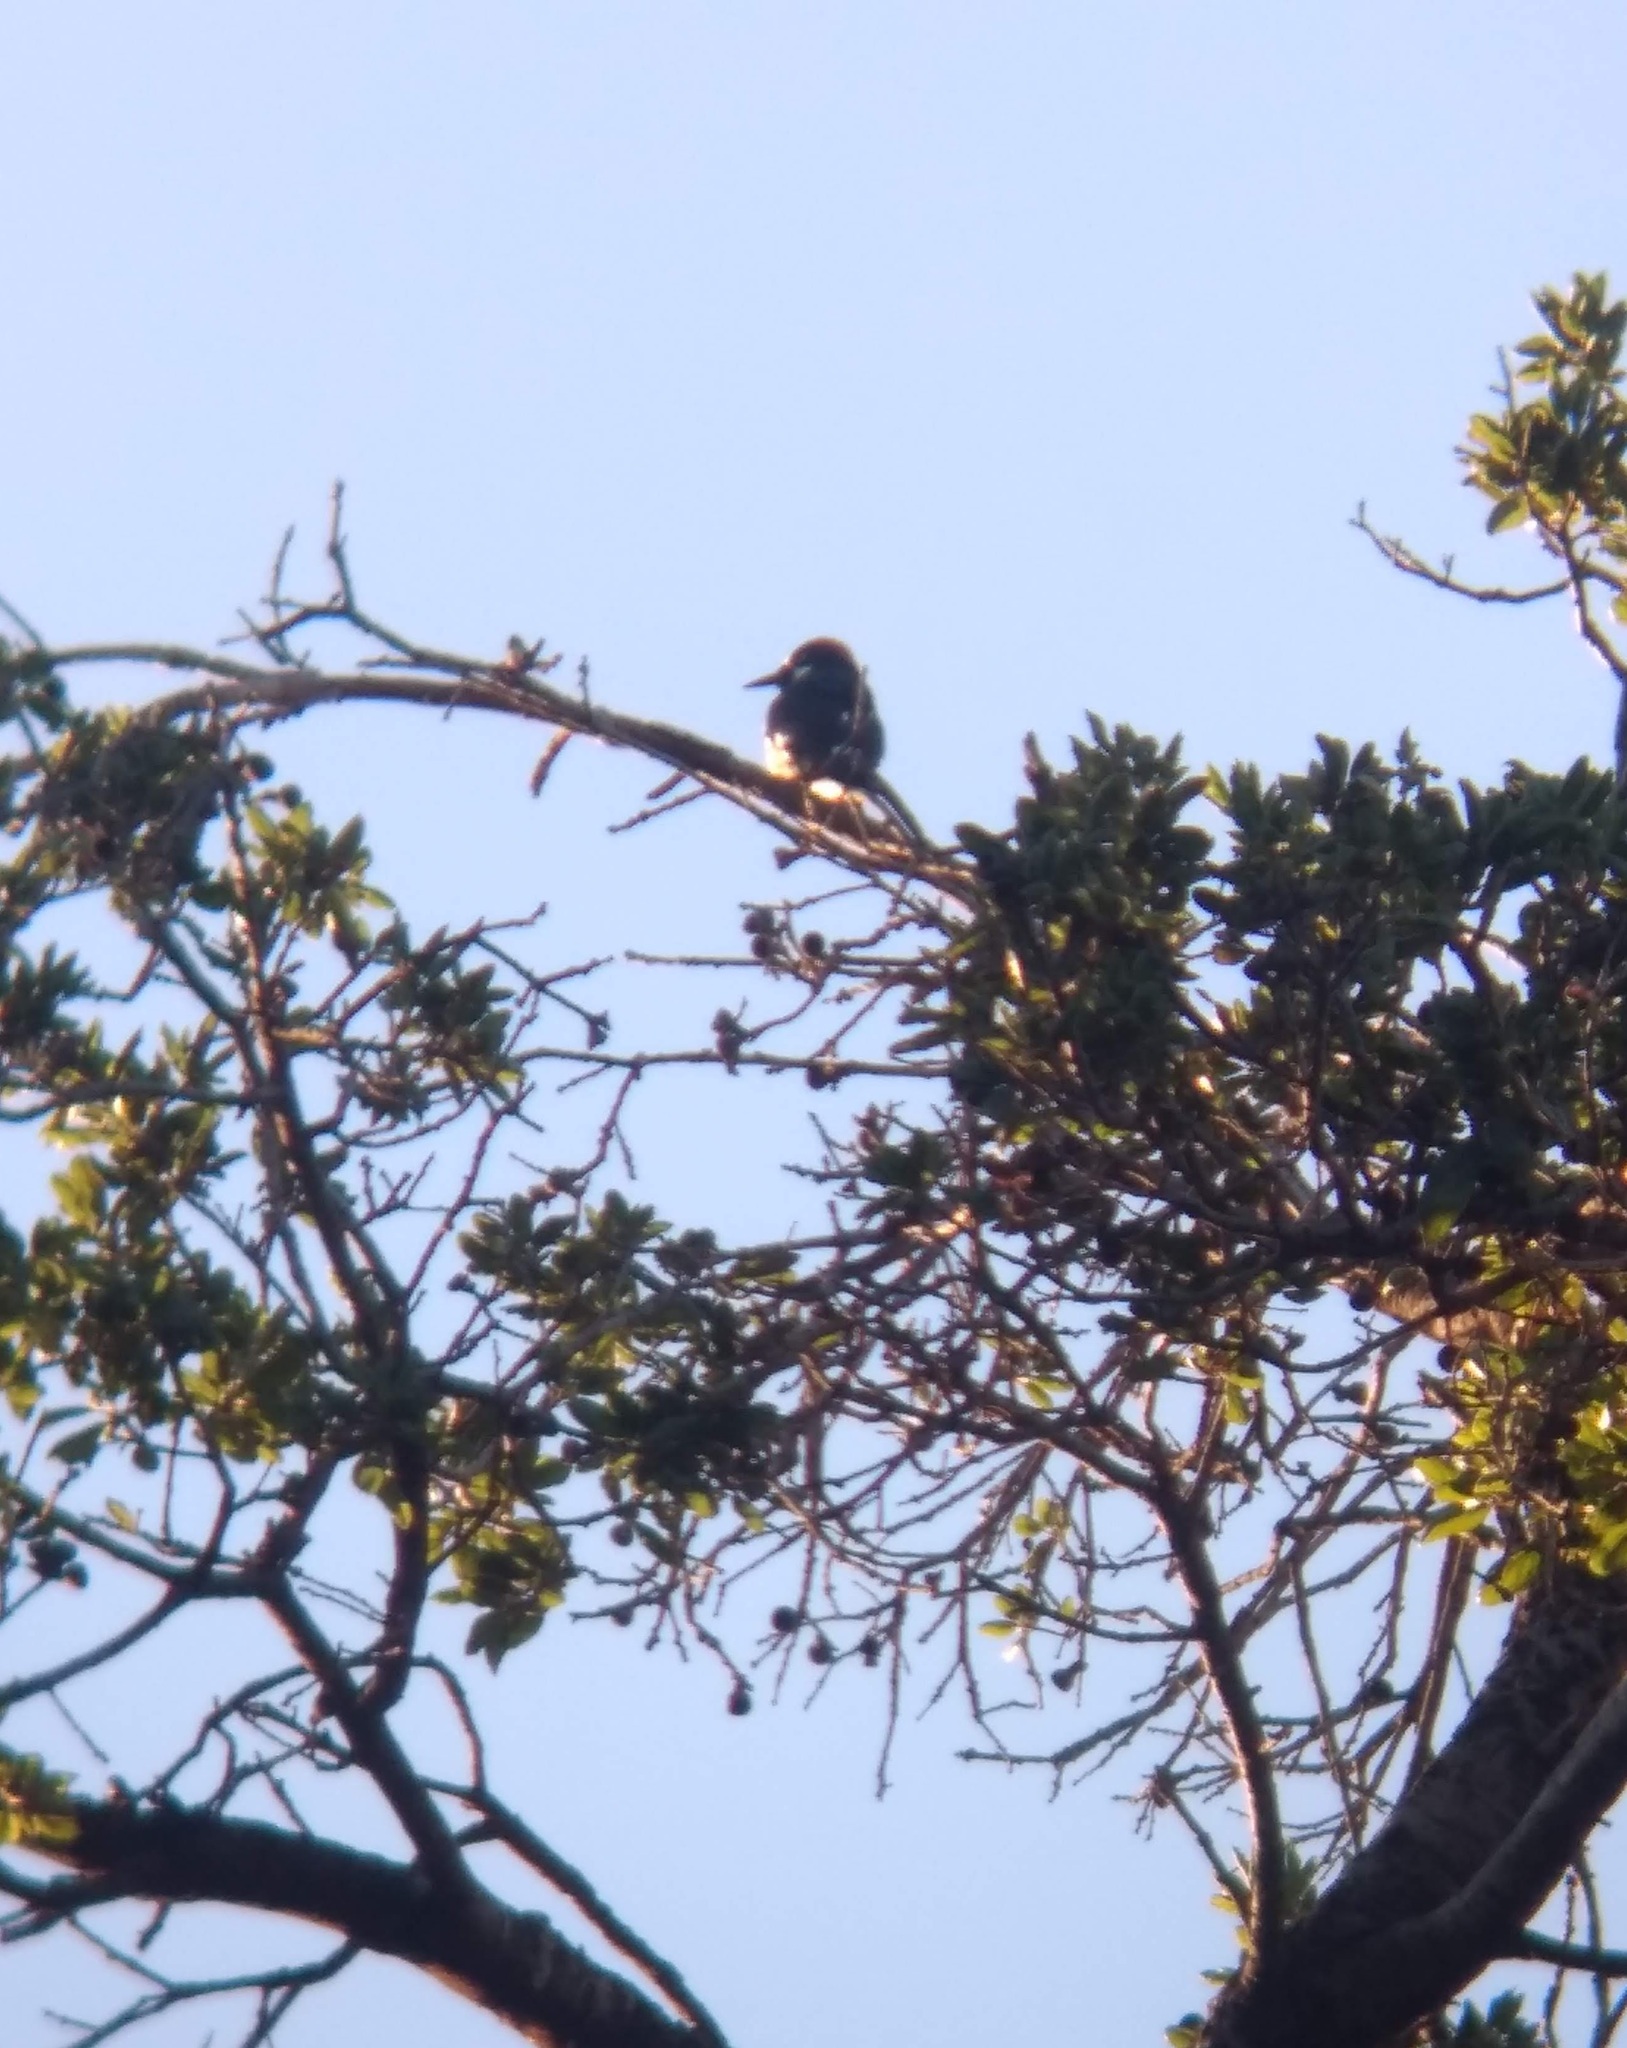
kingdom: Animalia
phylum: Chordata
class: Aves
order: Piciformes
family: Picidae
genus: Melanerpes
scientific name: Melanerpes formicivorus
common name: Acorn woodpecker
